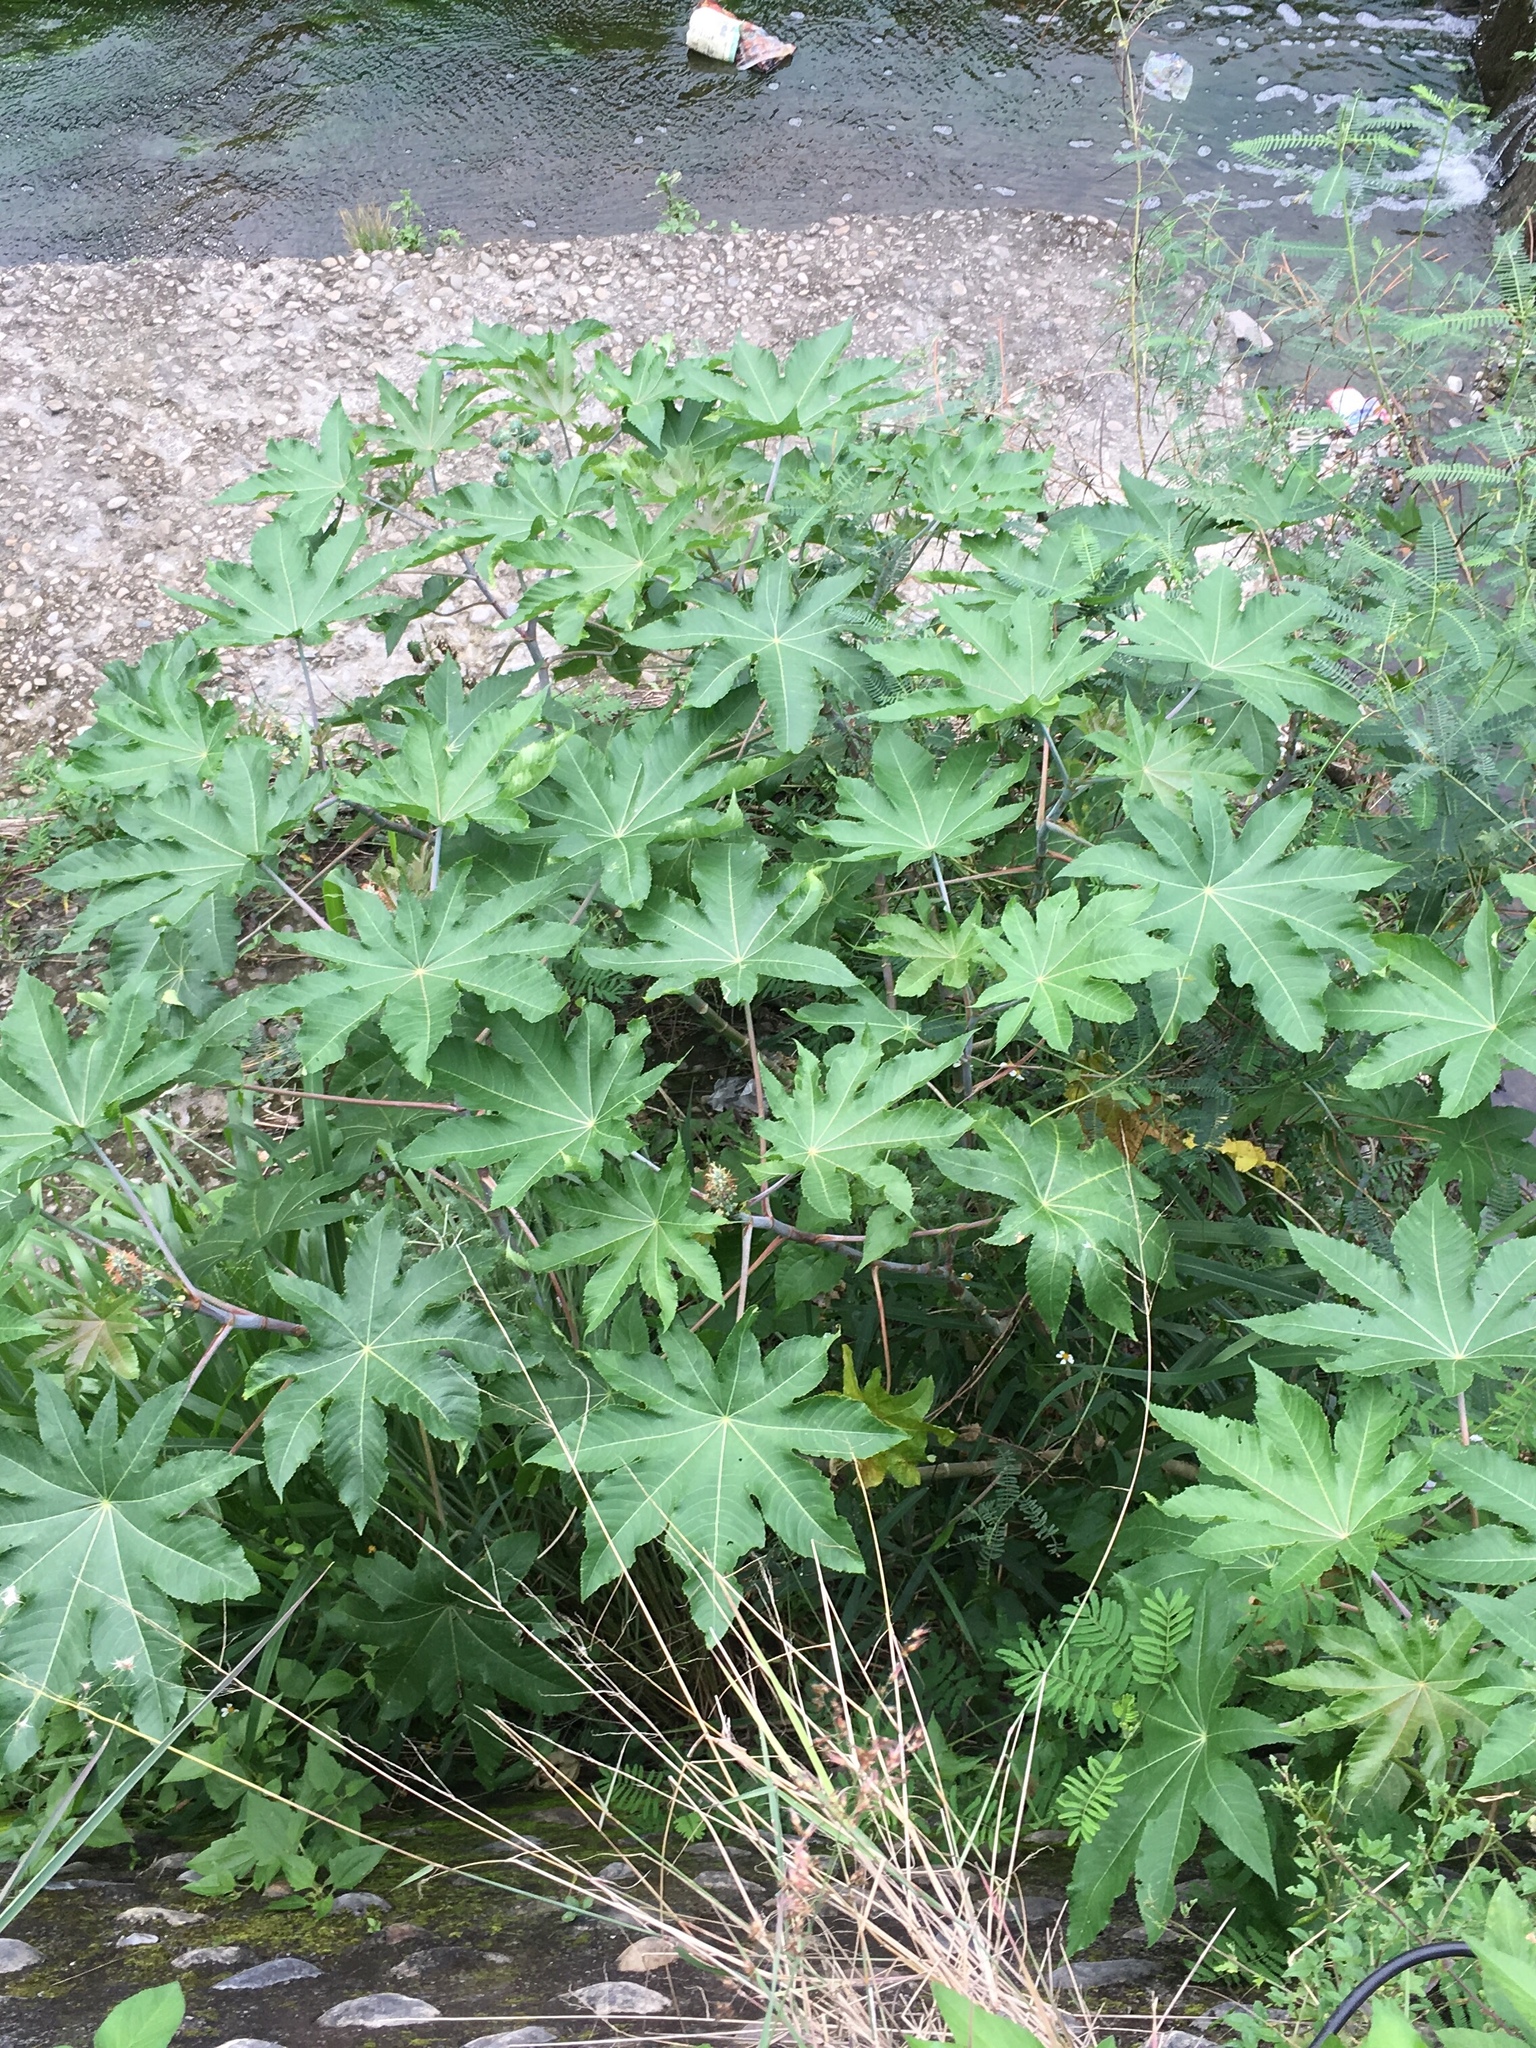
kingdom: Plantae
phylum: Tracheophyta
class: Magnoliopsida
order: Malpighiales
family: Euphorbiaceae
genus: Ricinus
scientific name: Ricinus communis
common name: Castor-oil-plant
